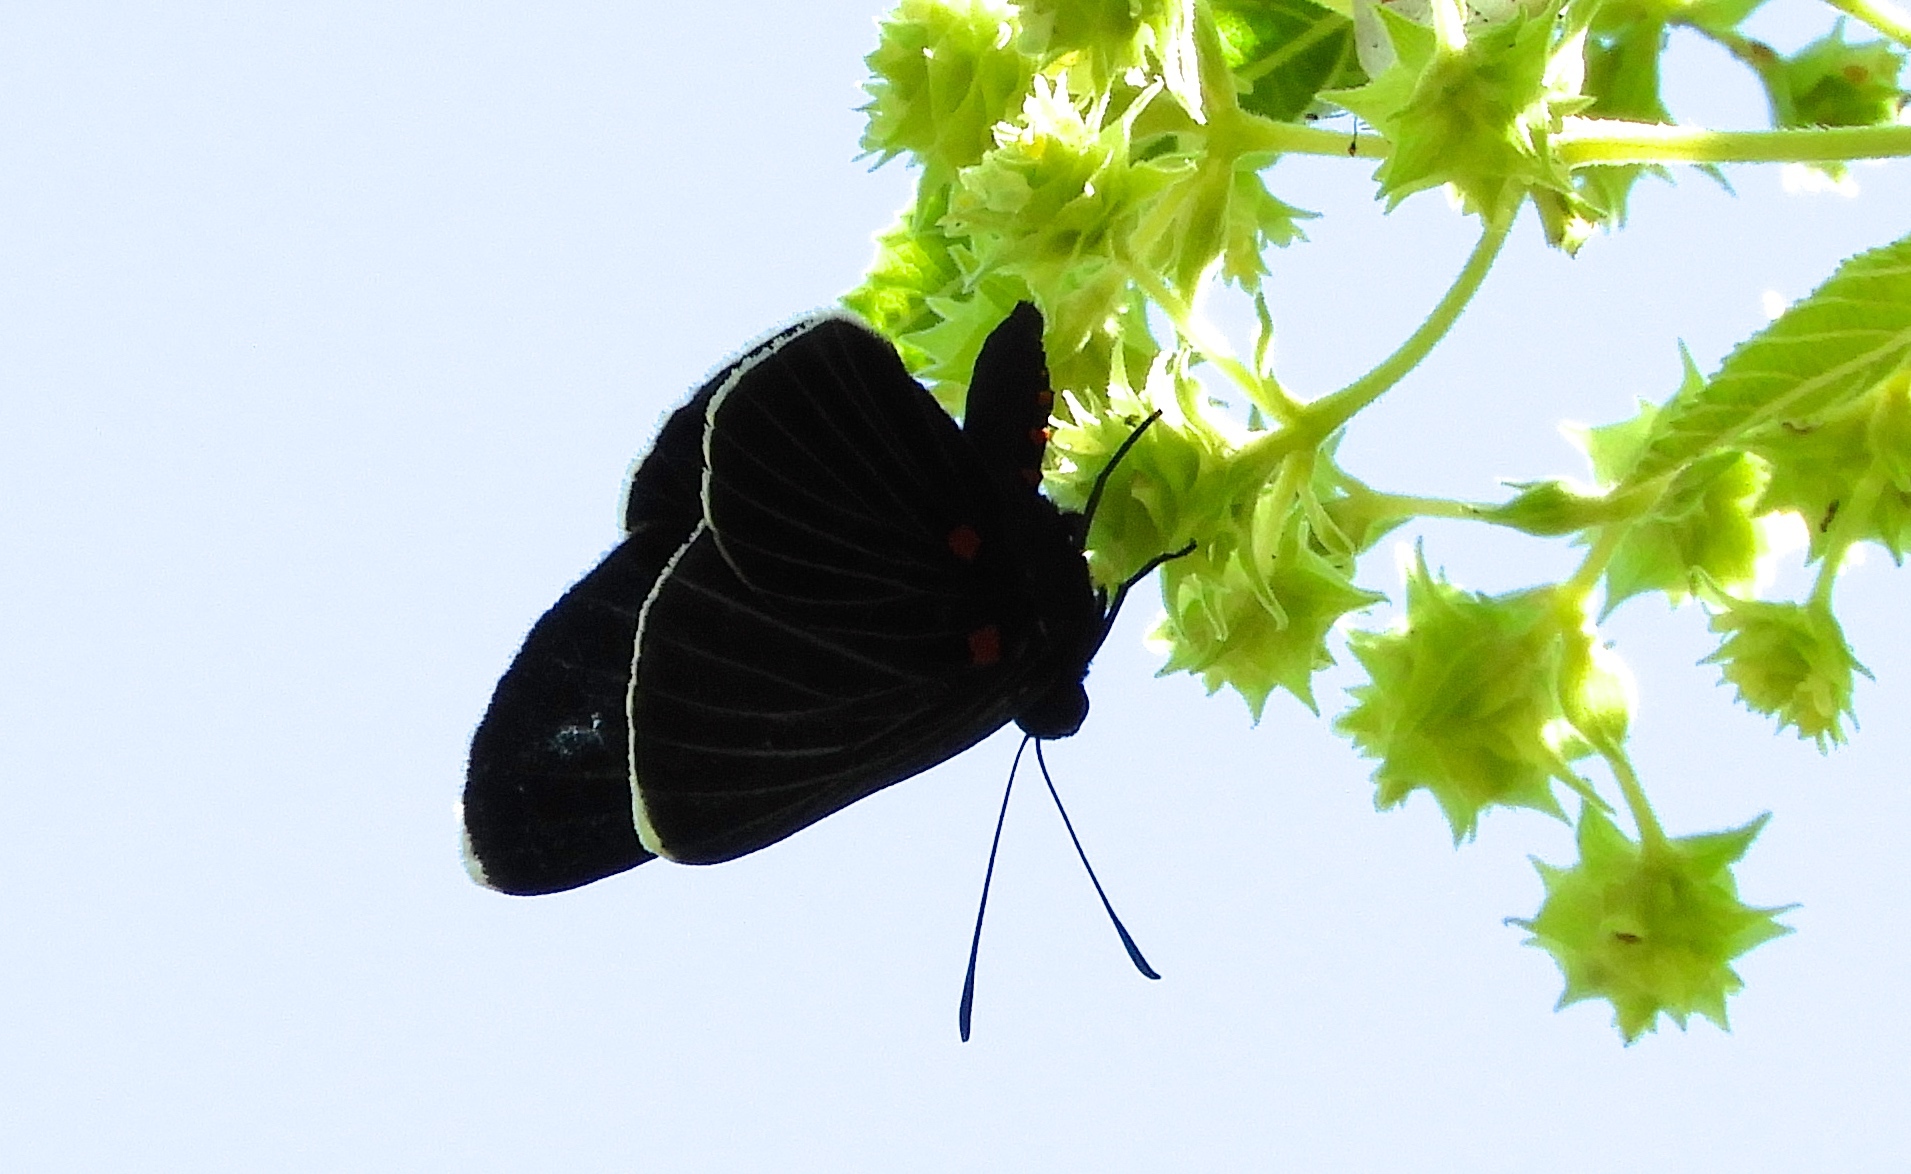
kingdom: Animalia
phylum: Arthropoda
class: Insecta
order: Lepidoptera
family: Lycaenidae
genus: Melanis
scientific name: Melanis
